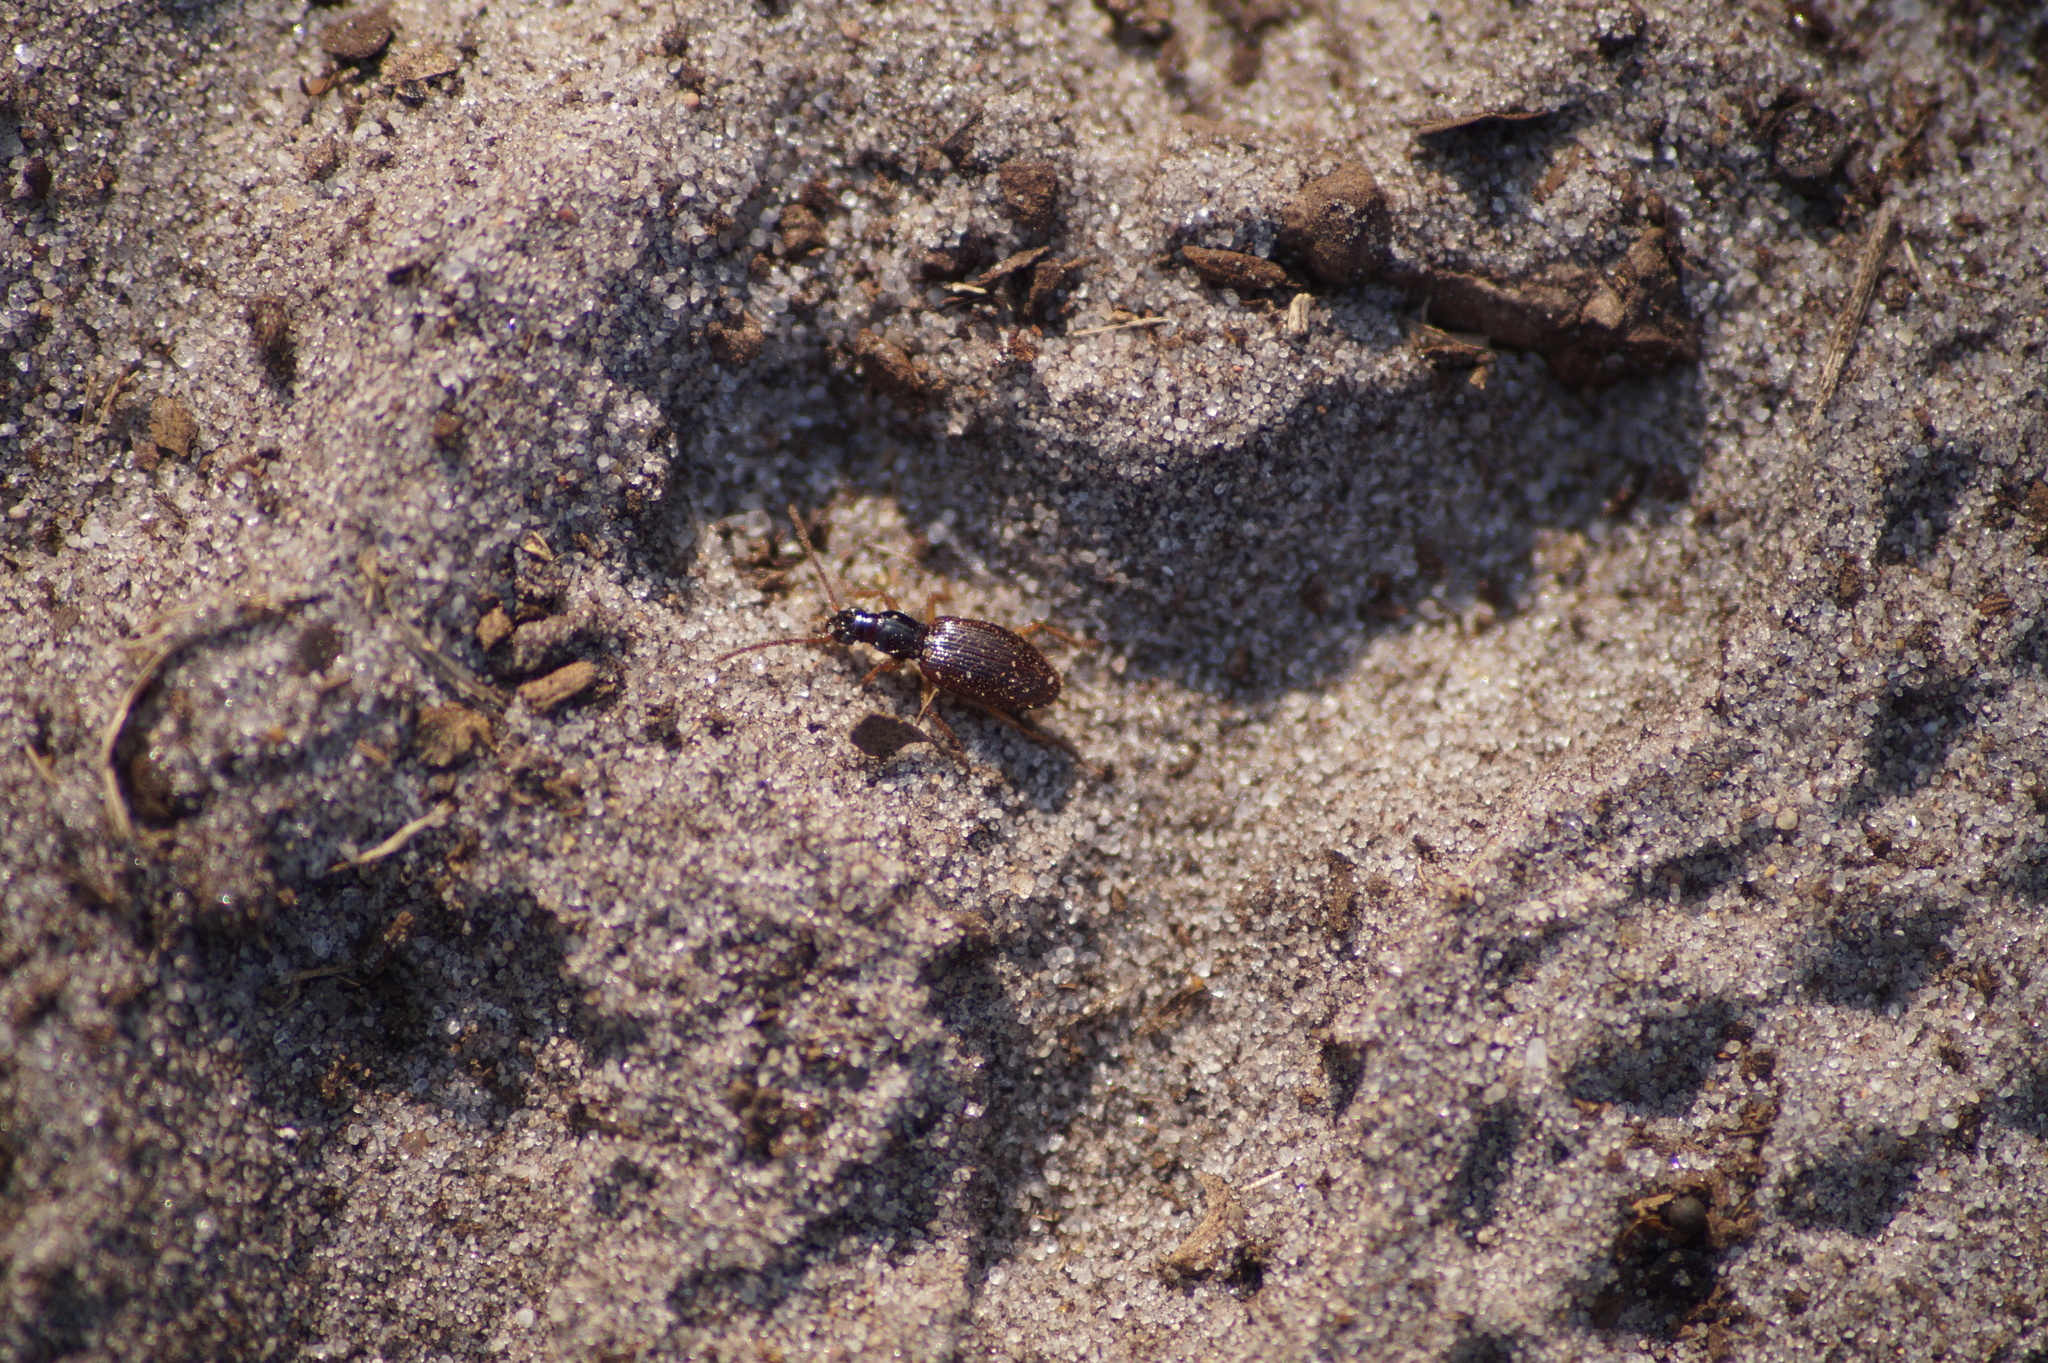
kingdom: Animalia
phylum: Arthropoda
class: Insecta
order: Coleoptera
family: Carabidae
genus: Oxypselaphus
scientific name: Oxypselaphus obscurus
